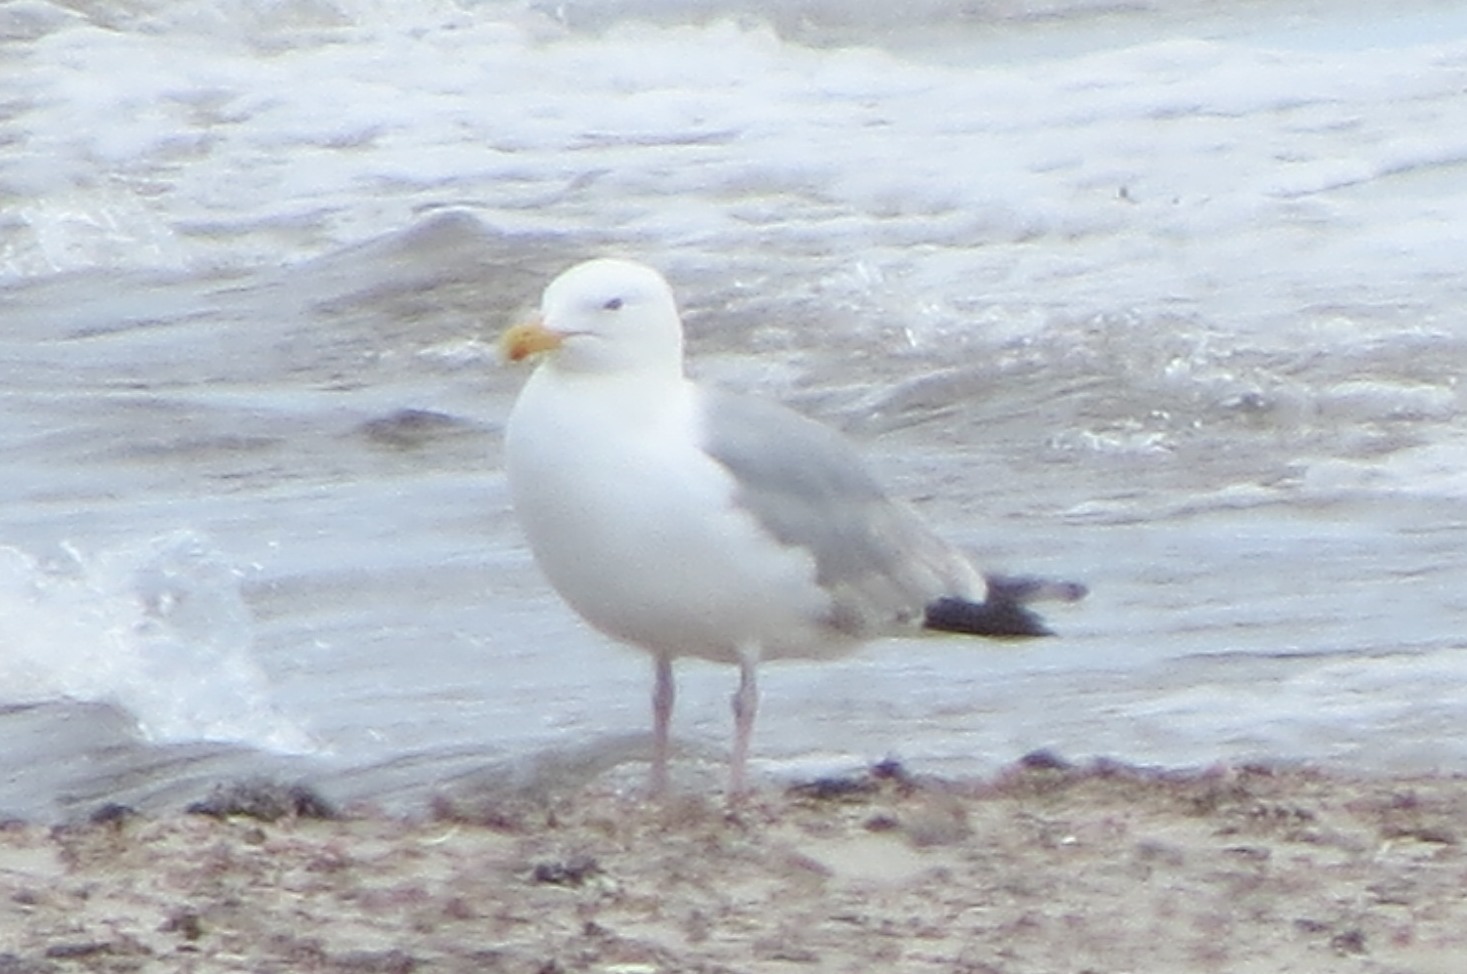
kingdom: Animalia
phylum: Chordata
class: Aves
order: Charadriiformes
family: Laridae
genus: Larus
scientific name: Larus argentatus
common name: Herring gull
